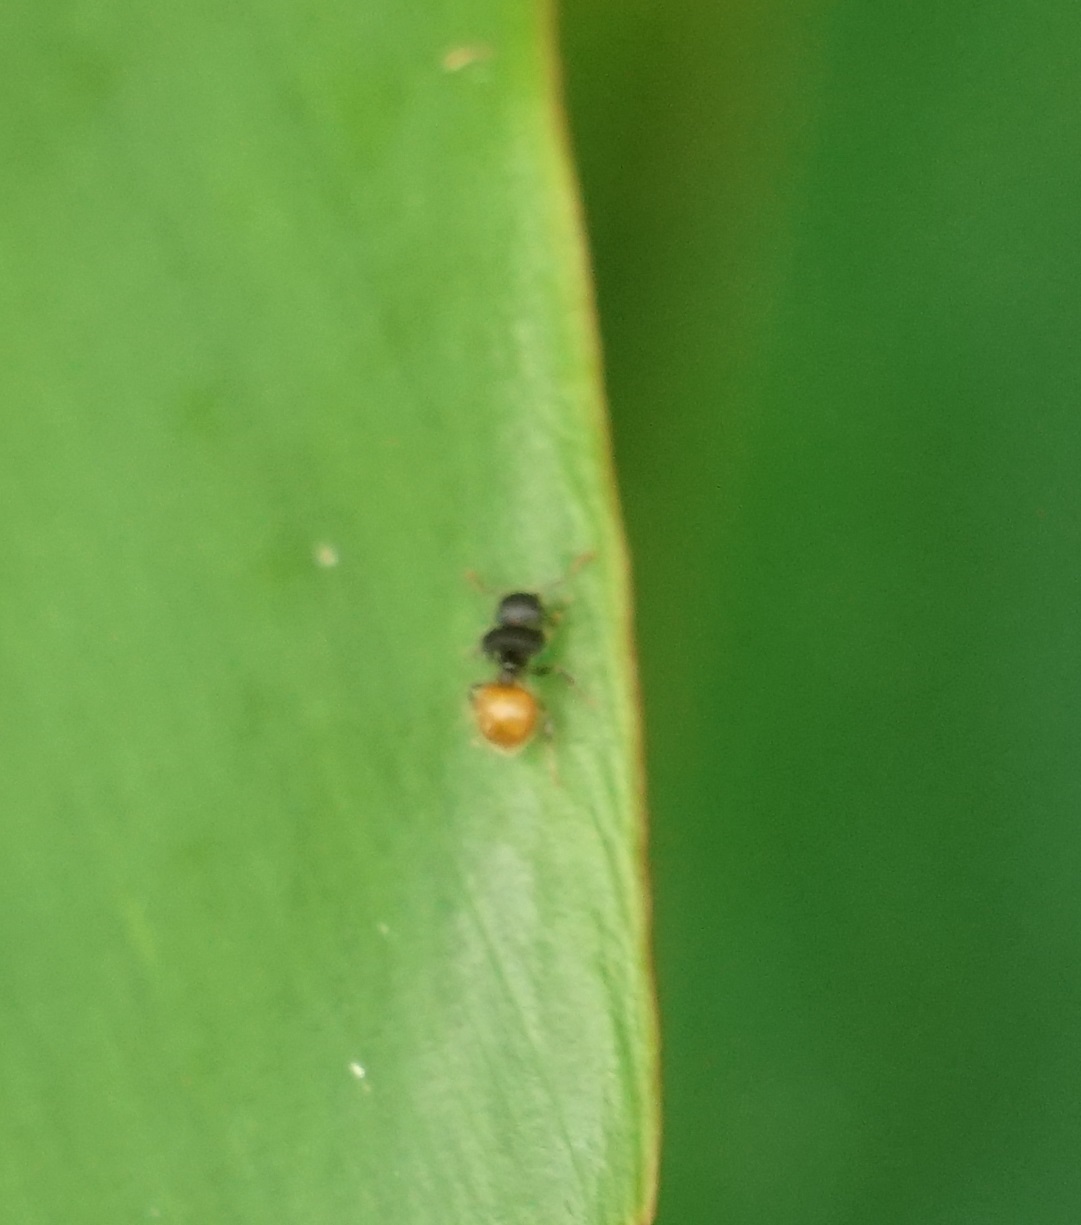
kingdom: Animalia
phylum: Arthropoda
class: Insecta
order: Hymenoptera
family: Formicidae
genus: Meranoplus
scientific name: Meranoplus hirsutus
